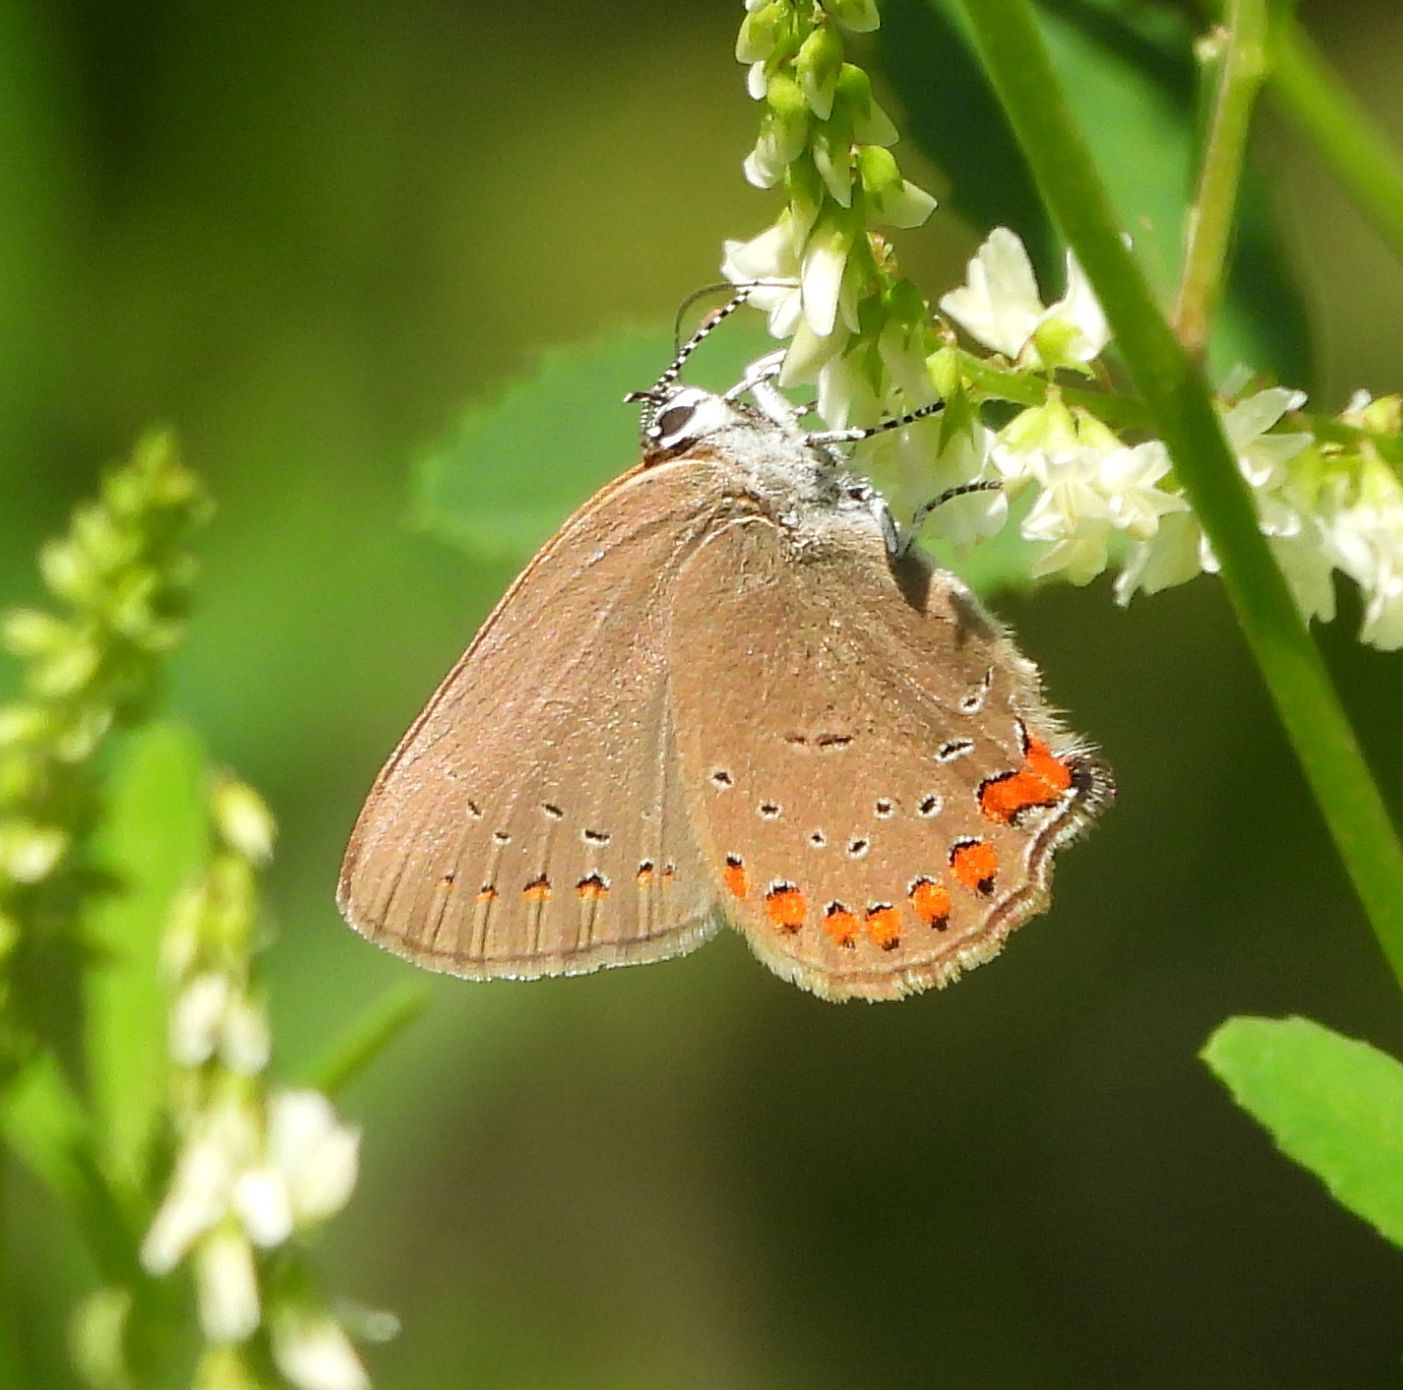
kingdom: Animalia
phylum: Arthropoda
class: Insecta
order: Lepidoptera
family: Lycaenidae
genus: Harkenclenus
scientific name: Harkenclenus titus
